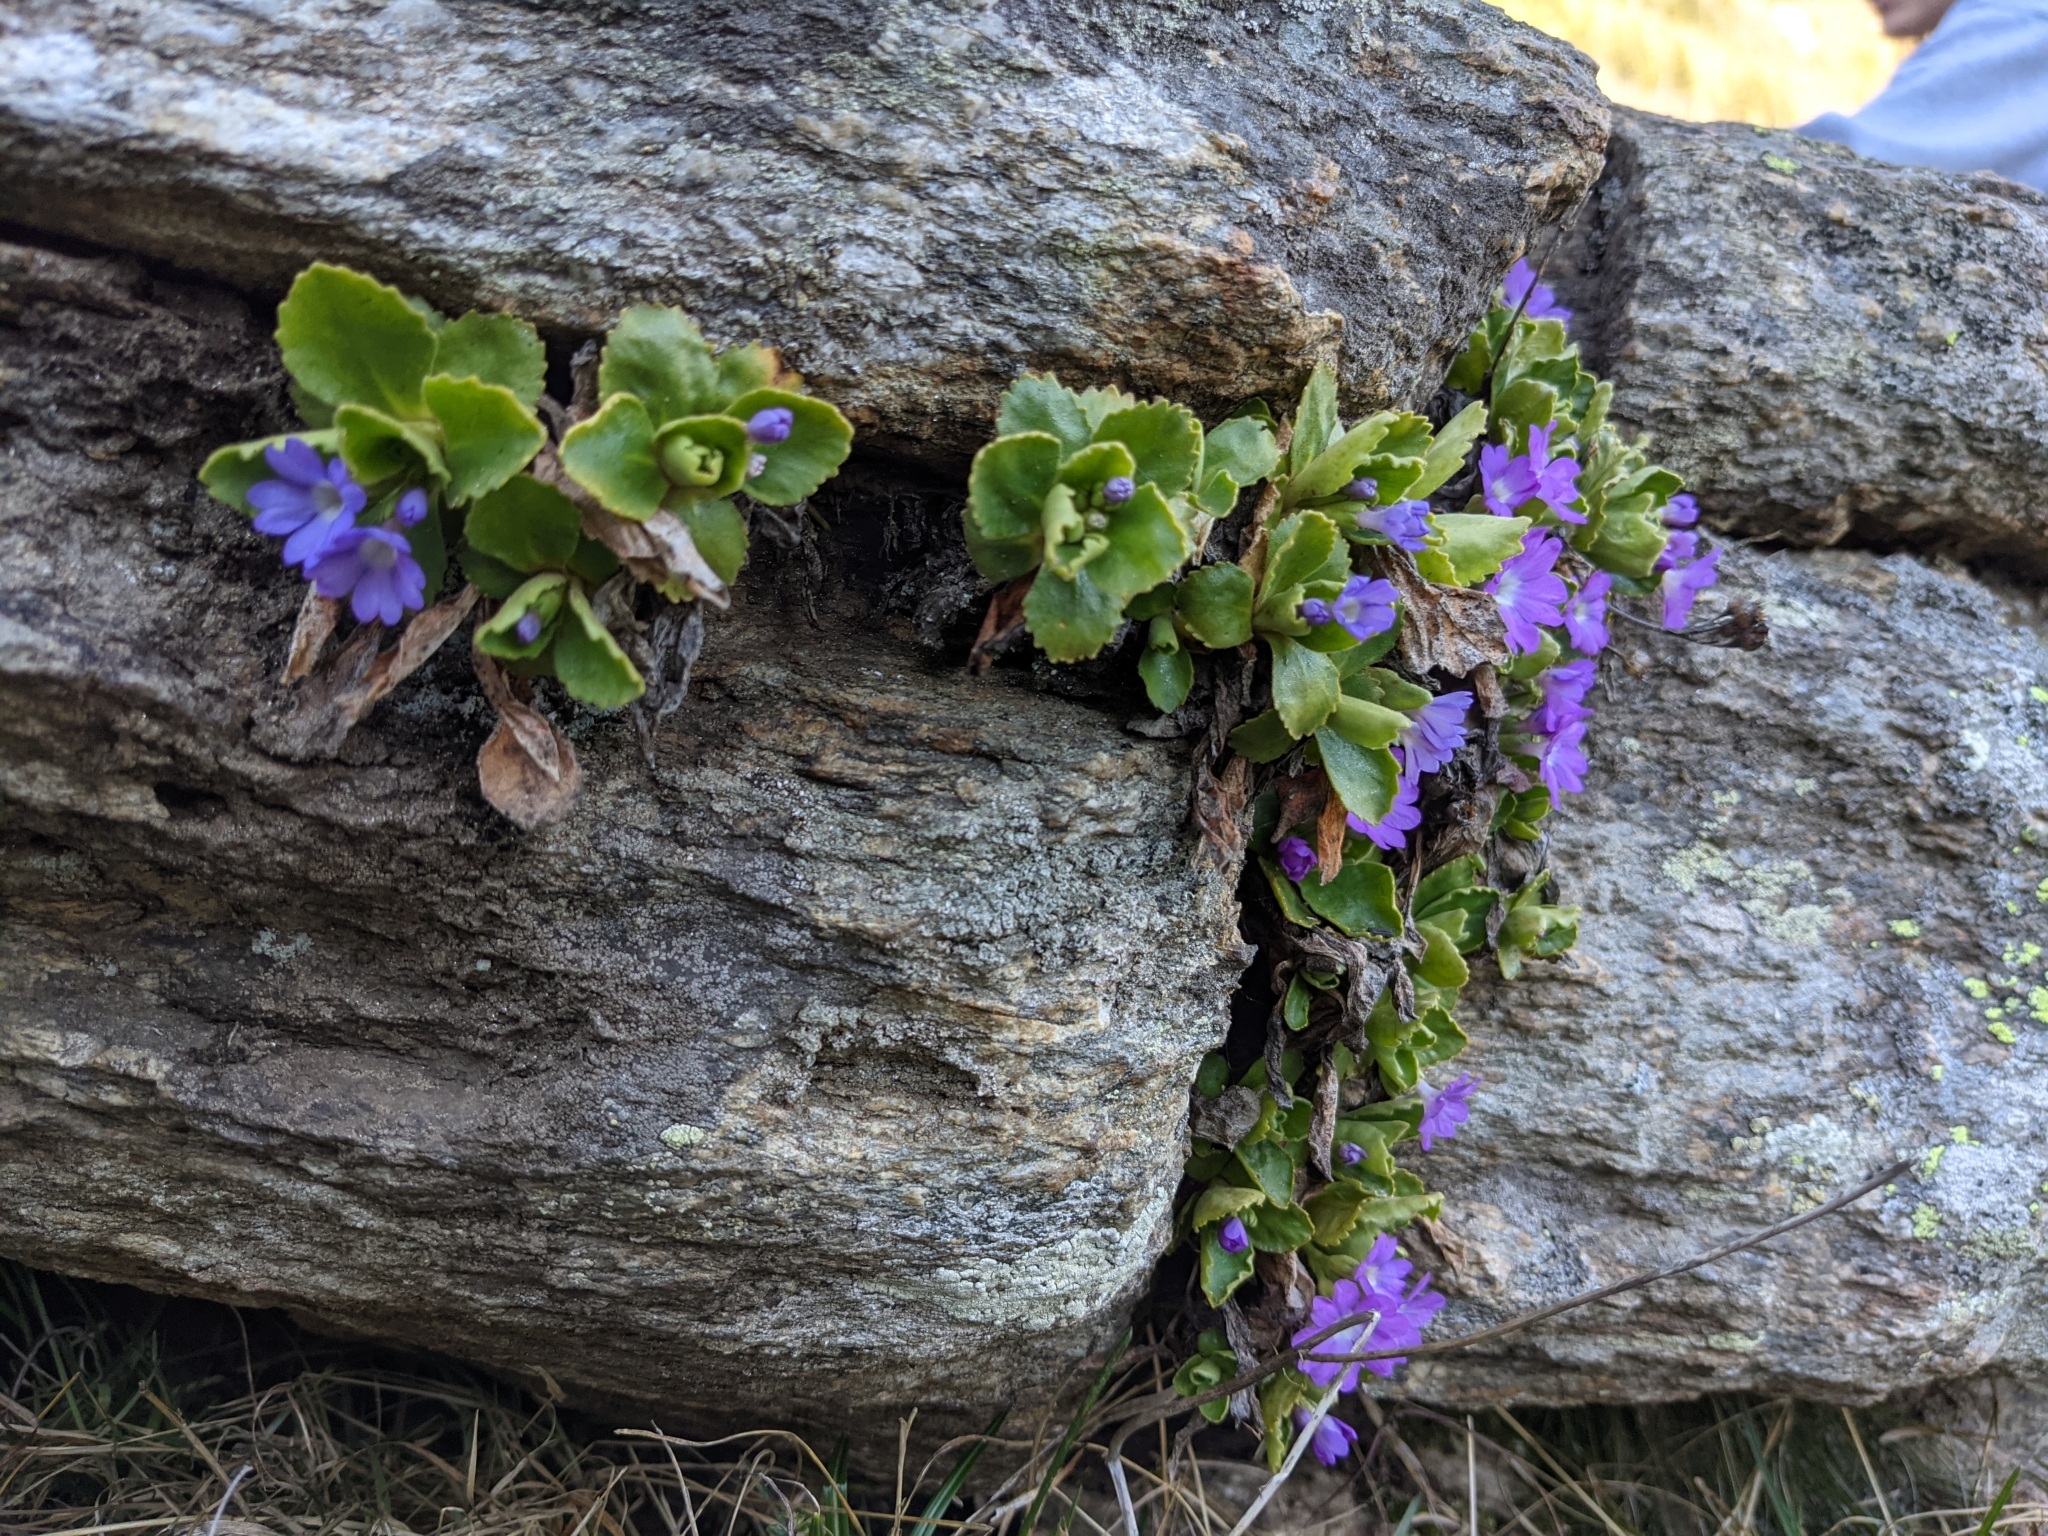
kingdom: Plantae
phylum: Tracheophyta
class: Magnoliopsida
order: Ericales
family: Primulaceae
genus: Primula
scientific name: Primula hirsuta
